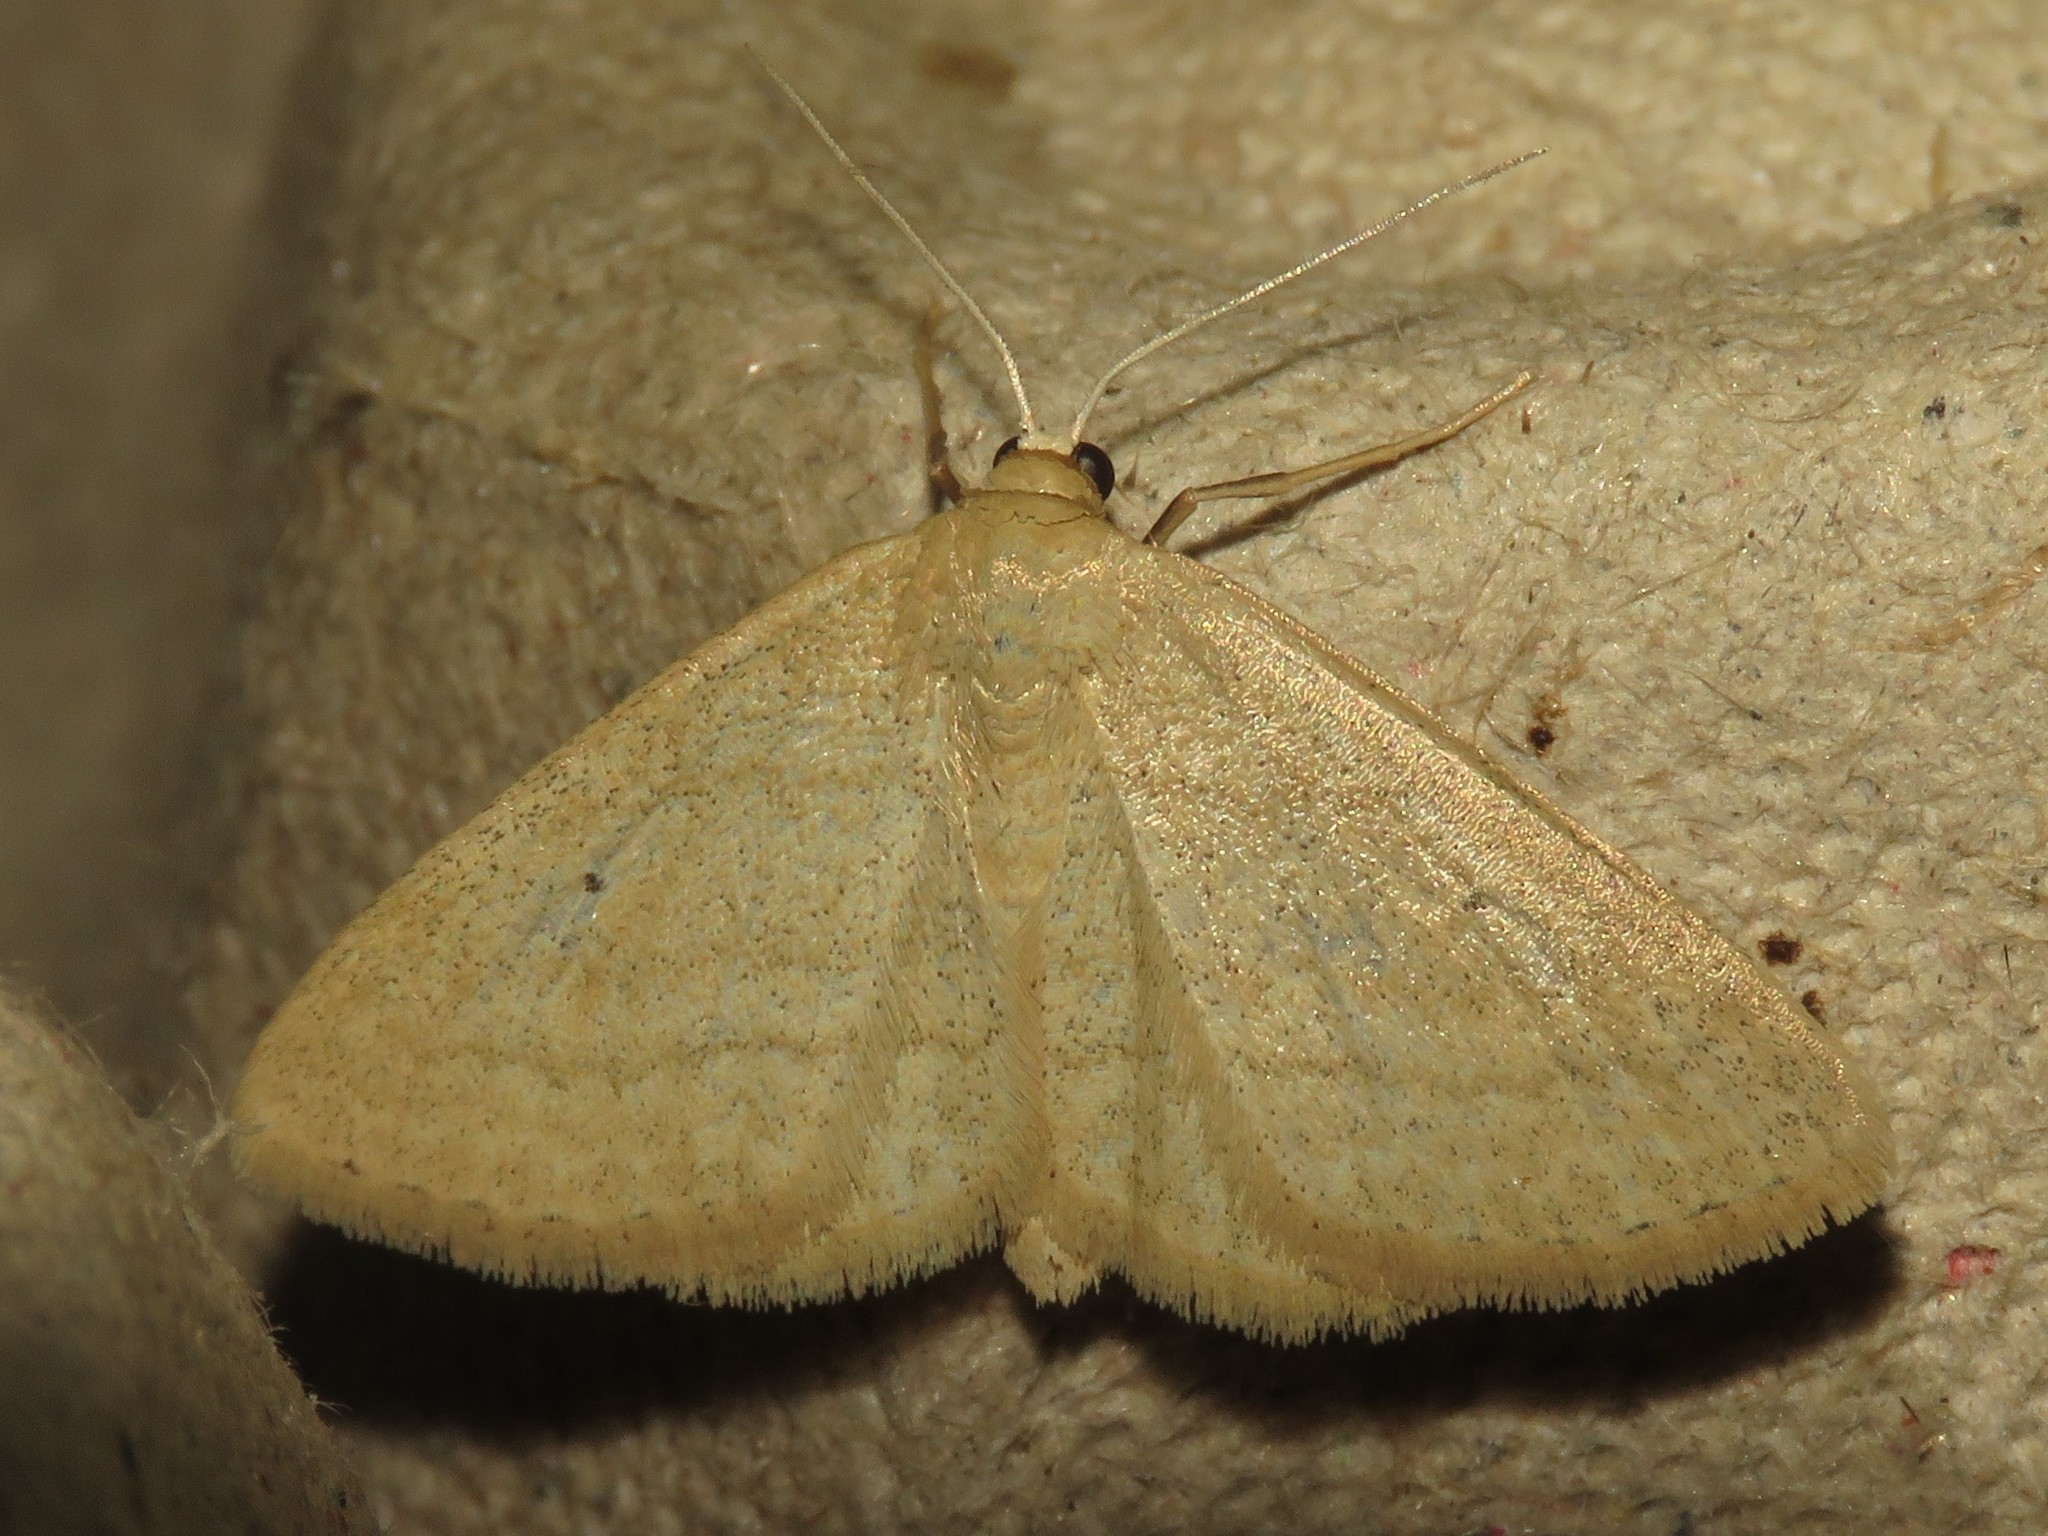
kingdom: Animalia
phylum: Arthropoda
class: Insecta
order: Lepidoptera
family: Geometridae
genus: Scopula
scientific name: Scopula inductata
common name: Soft-lined wave
